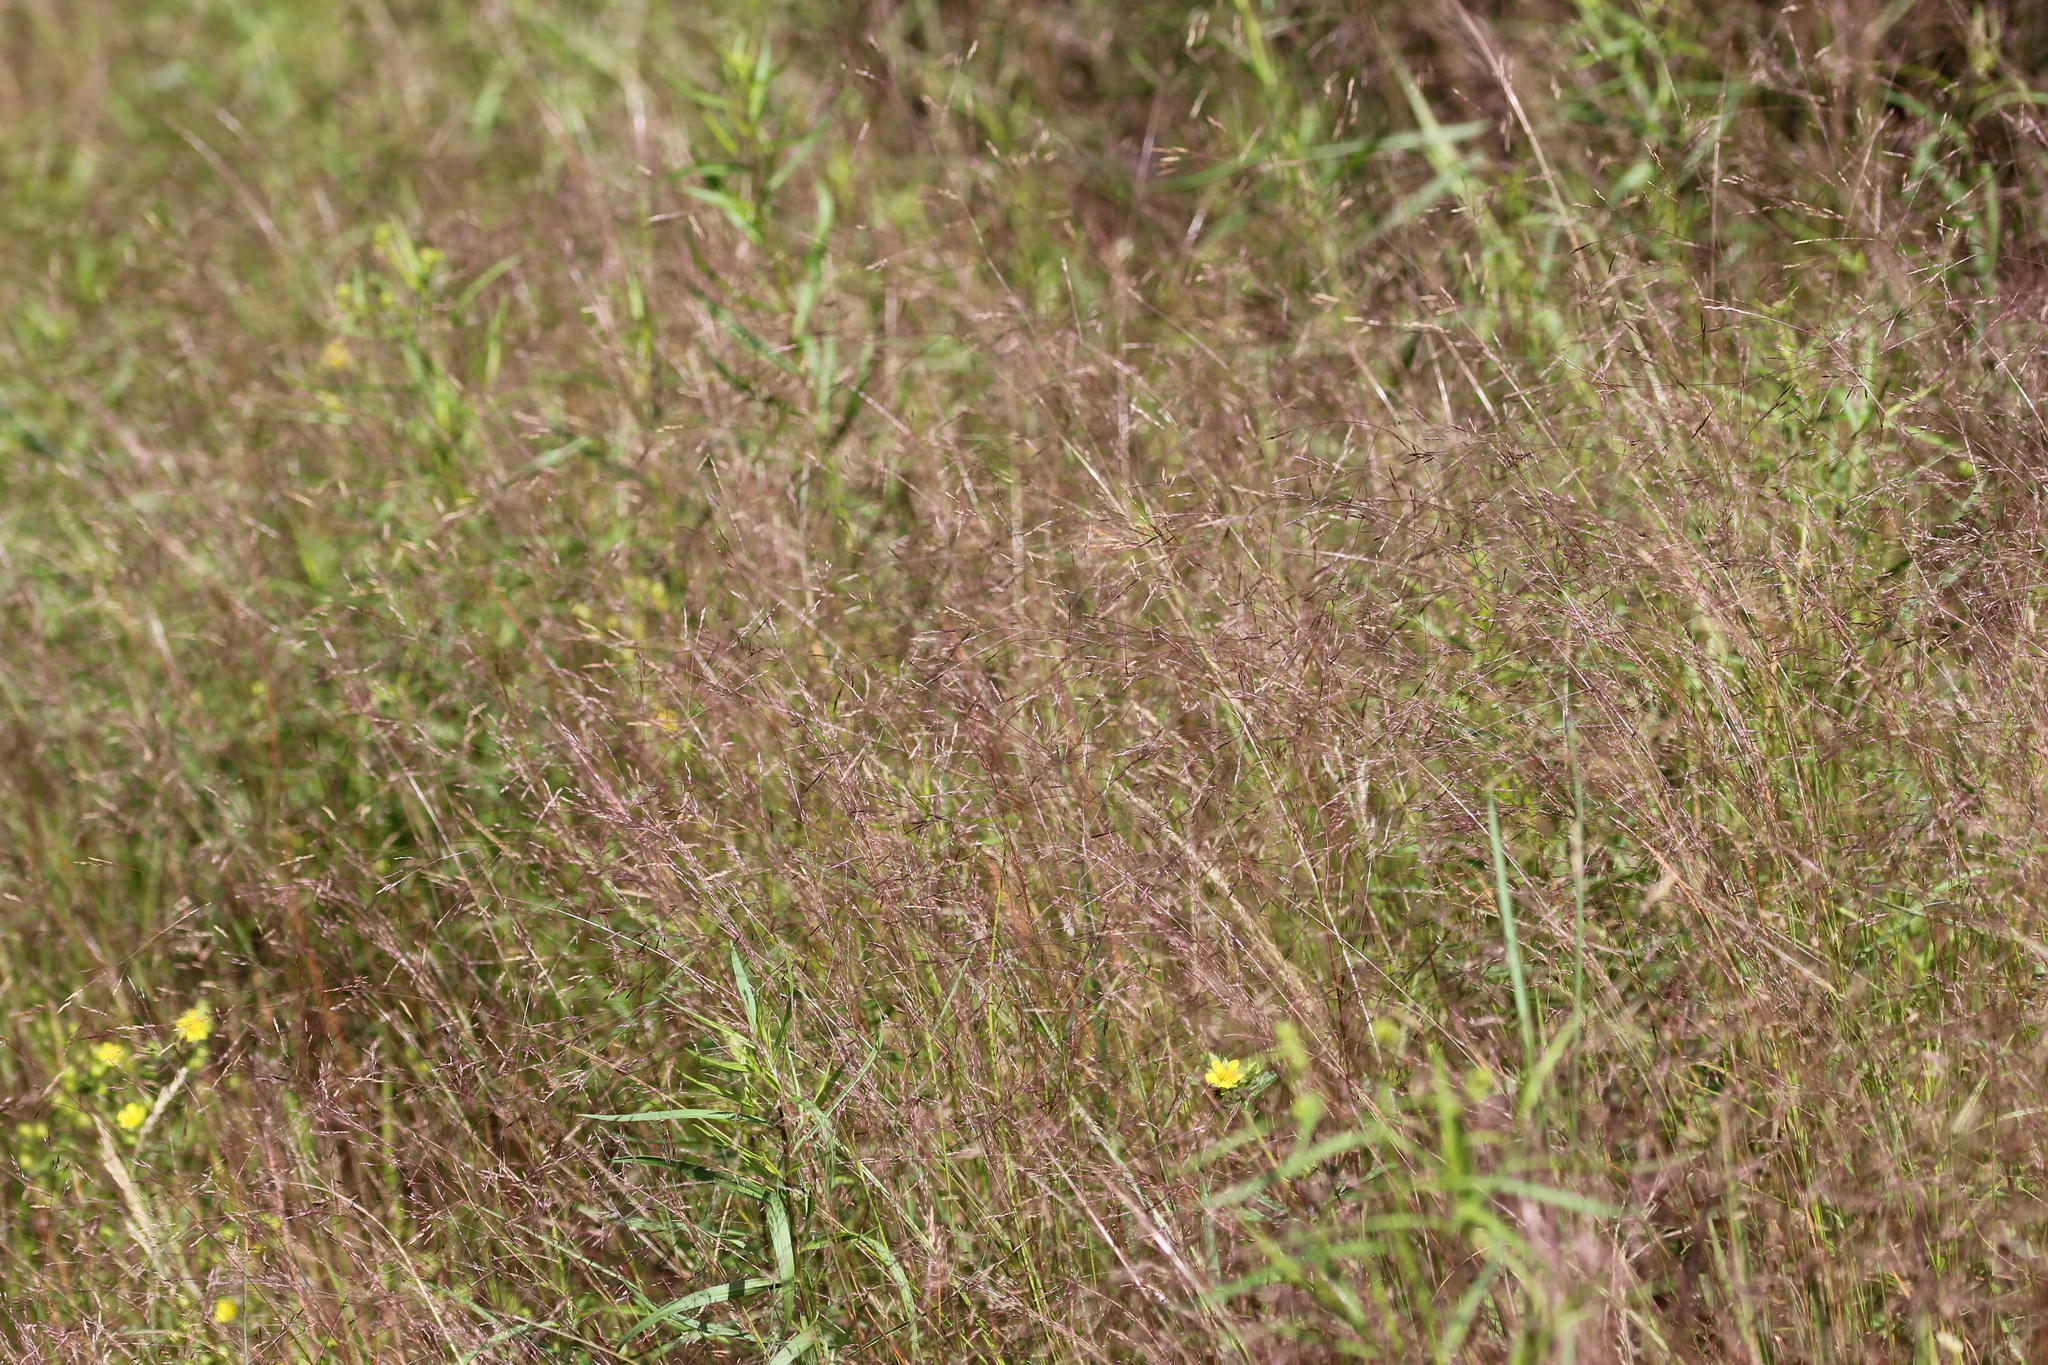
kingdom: Plantae
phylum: Tracheophyta
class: Liliopsida
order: Poales
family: Poaceae
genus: Agrostis
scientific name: Agrostis scabra
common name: Rough bent
